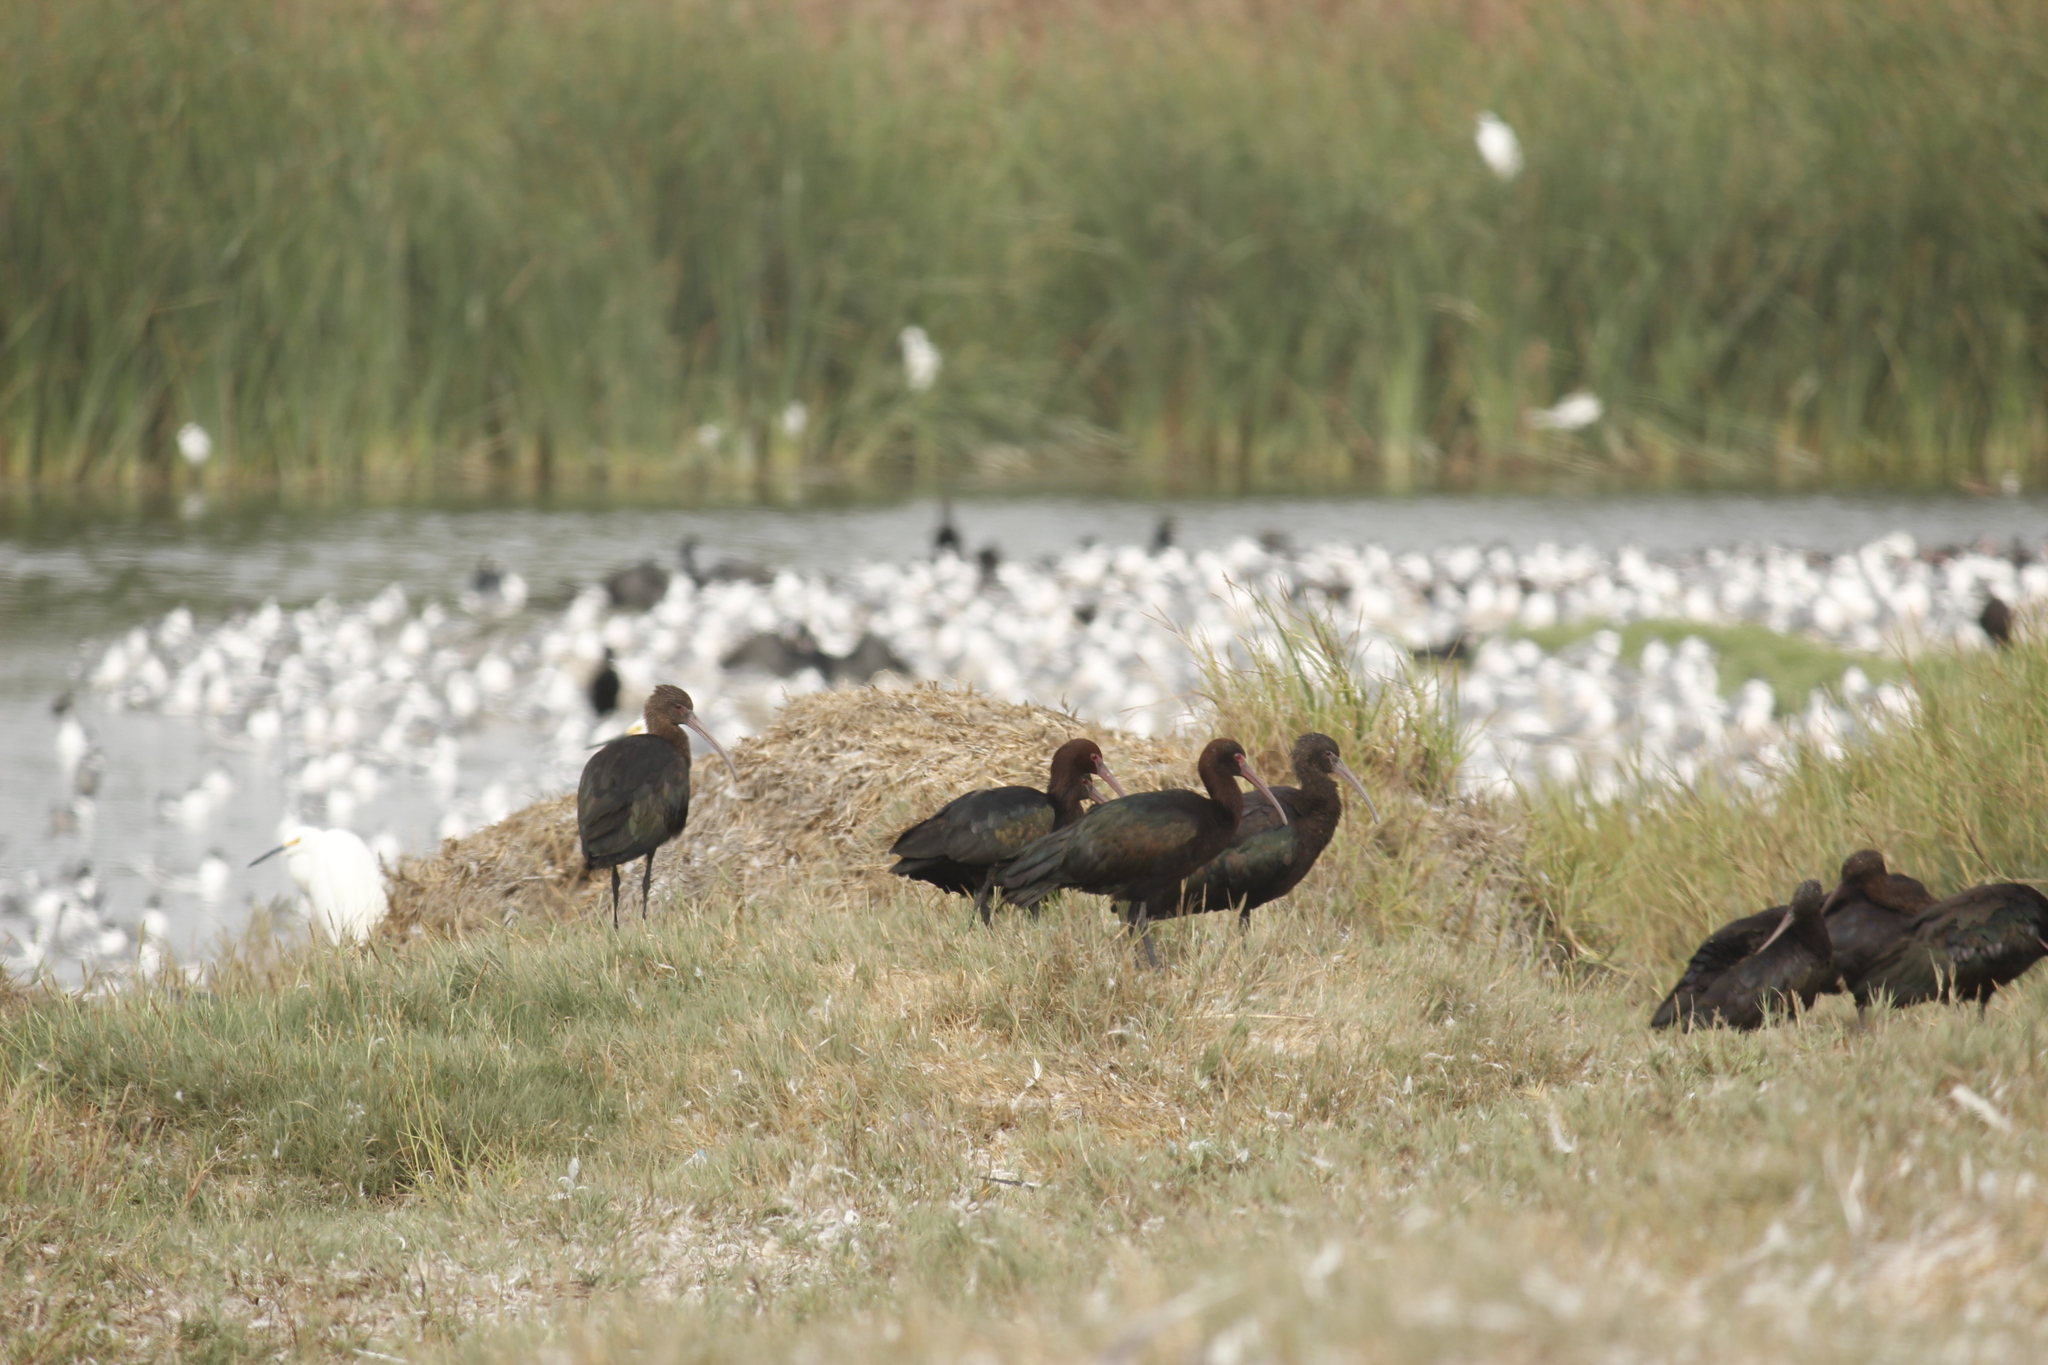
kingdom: Animalia
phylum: Chordata
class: Aves
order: Pelecaniformes
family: Threskiornithidae
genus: Plegadis
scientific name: Plegadis ridgwayi
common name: Puna ibis
